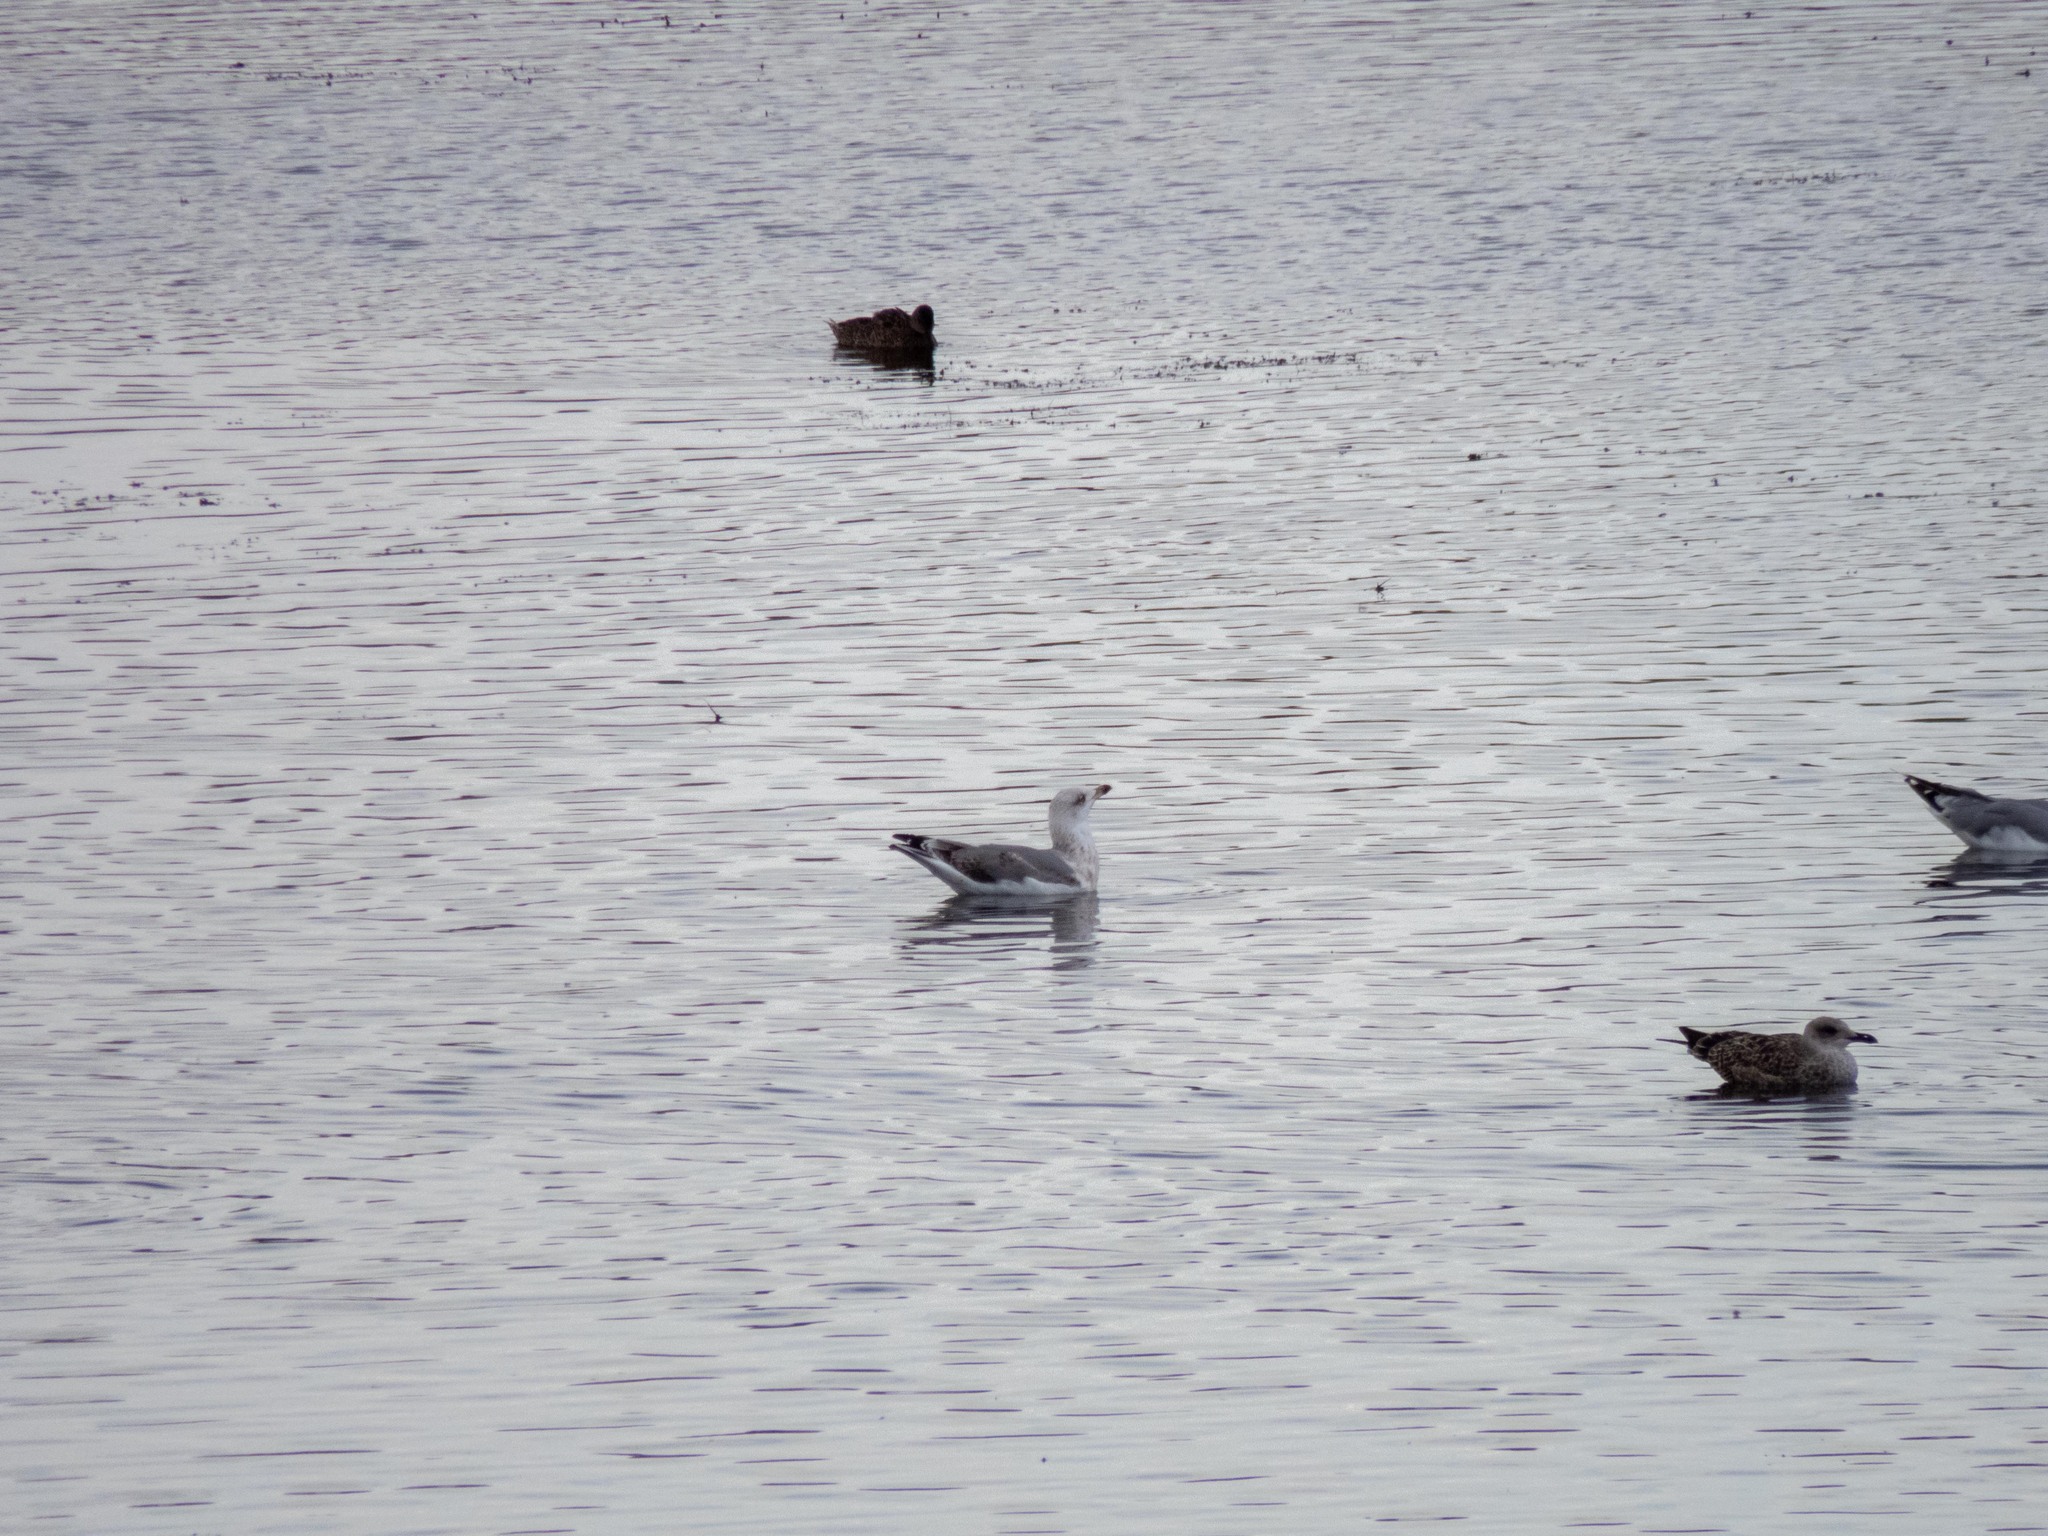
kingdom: Animalia
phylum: Chordata
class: Aves
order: Charadriiformes
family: Laridae
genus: Larus
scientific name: Larus michahellis
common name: Yellow-legged gull
